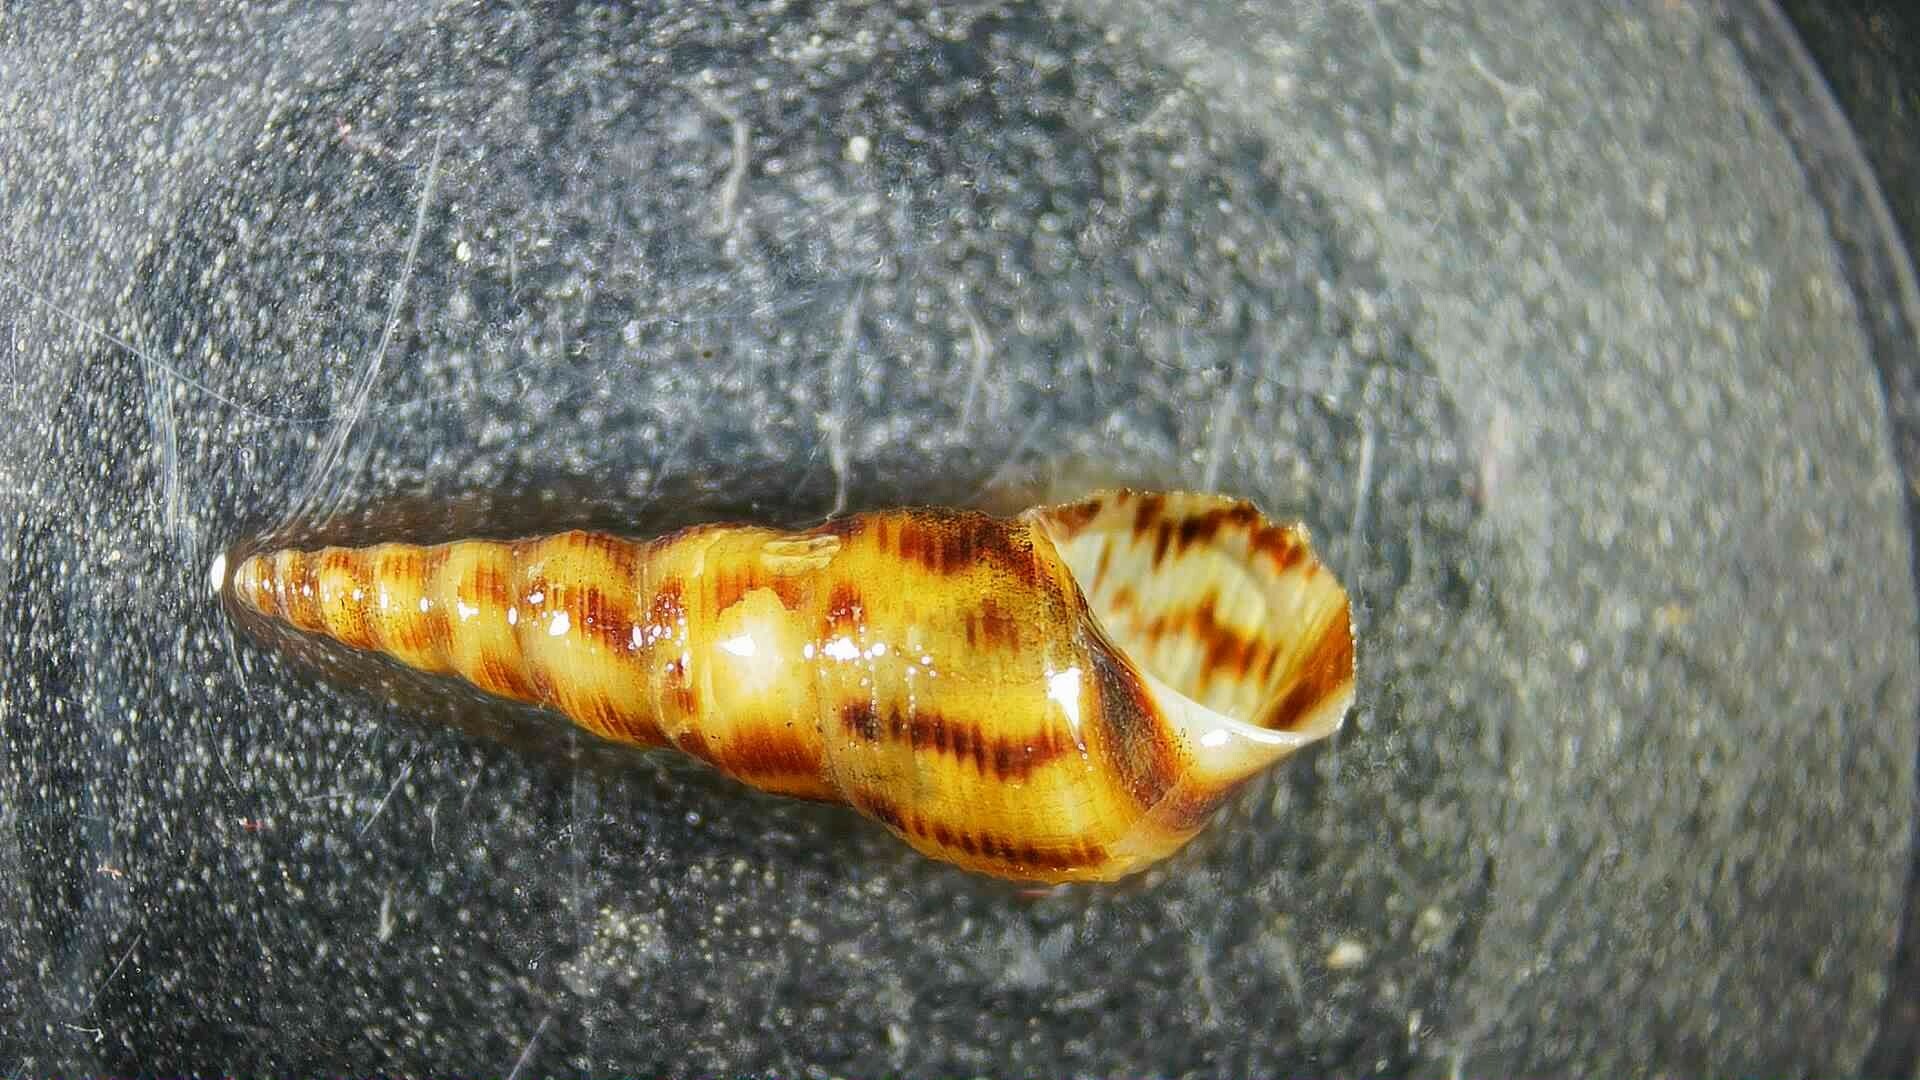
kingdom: Animalia
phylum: Mollusca
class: Gastropoda
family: Thiaridae
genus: Melanoides
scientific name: Melanoides tuberculata
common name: Red-rim melania
